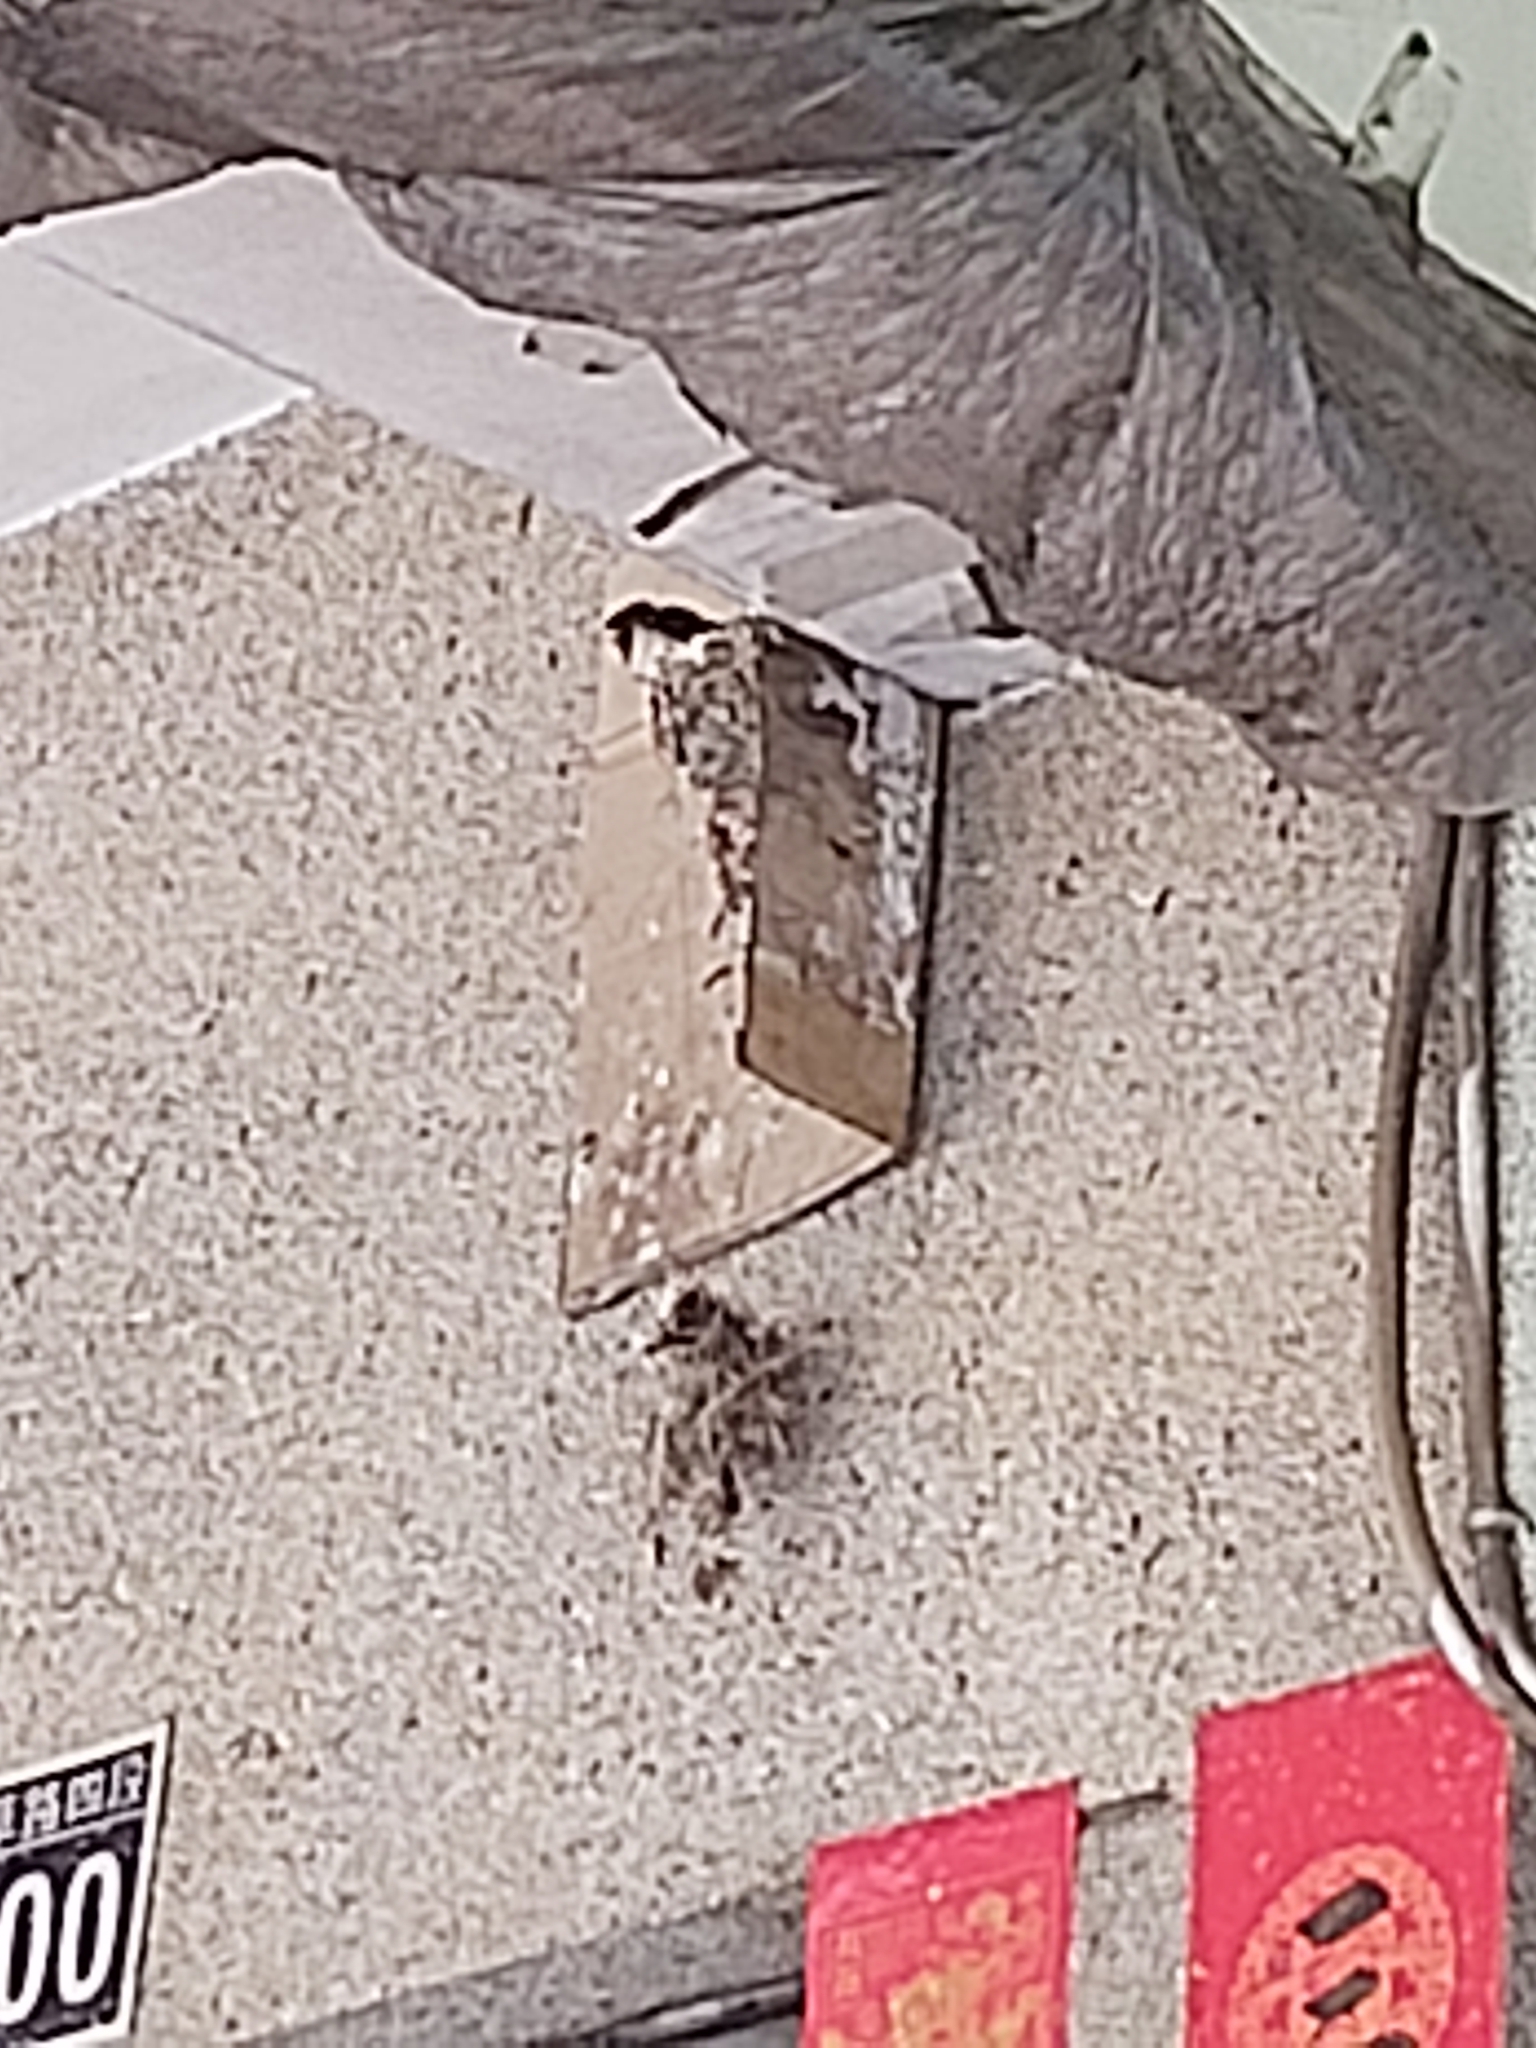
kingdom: Animalia
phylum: Chordata
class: Aves
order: Passeriformes
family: Hirundinidae
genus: Hirundo
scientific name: Hirundo rustica
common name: Barn swallow
